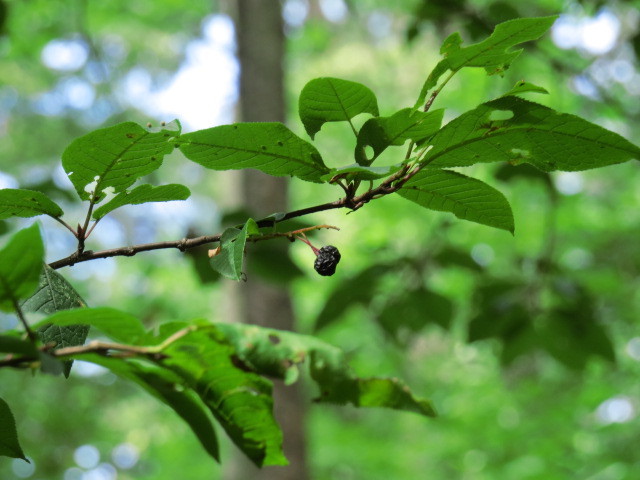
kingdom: Plantae
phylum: Tracheophyta
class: Magnoliopsida
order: Rosales
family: Rosaceae
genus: Prunus
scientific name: Prunus padus
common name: Bird cherry
